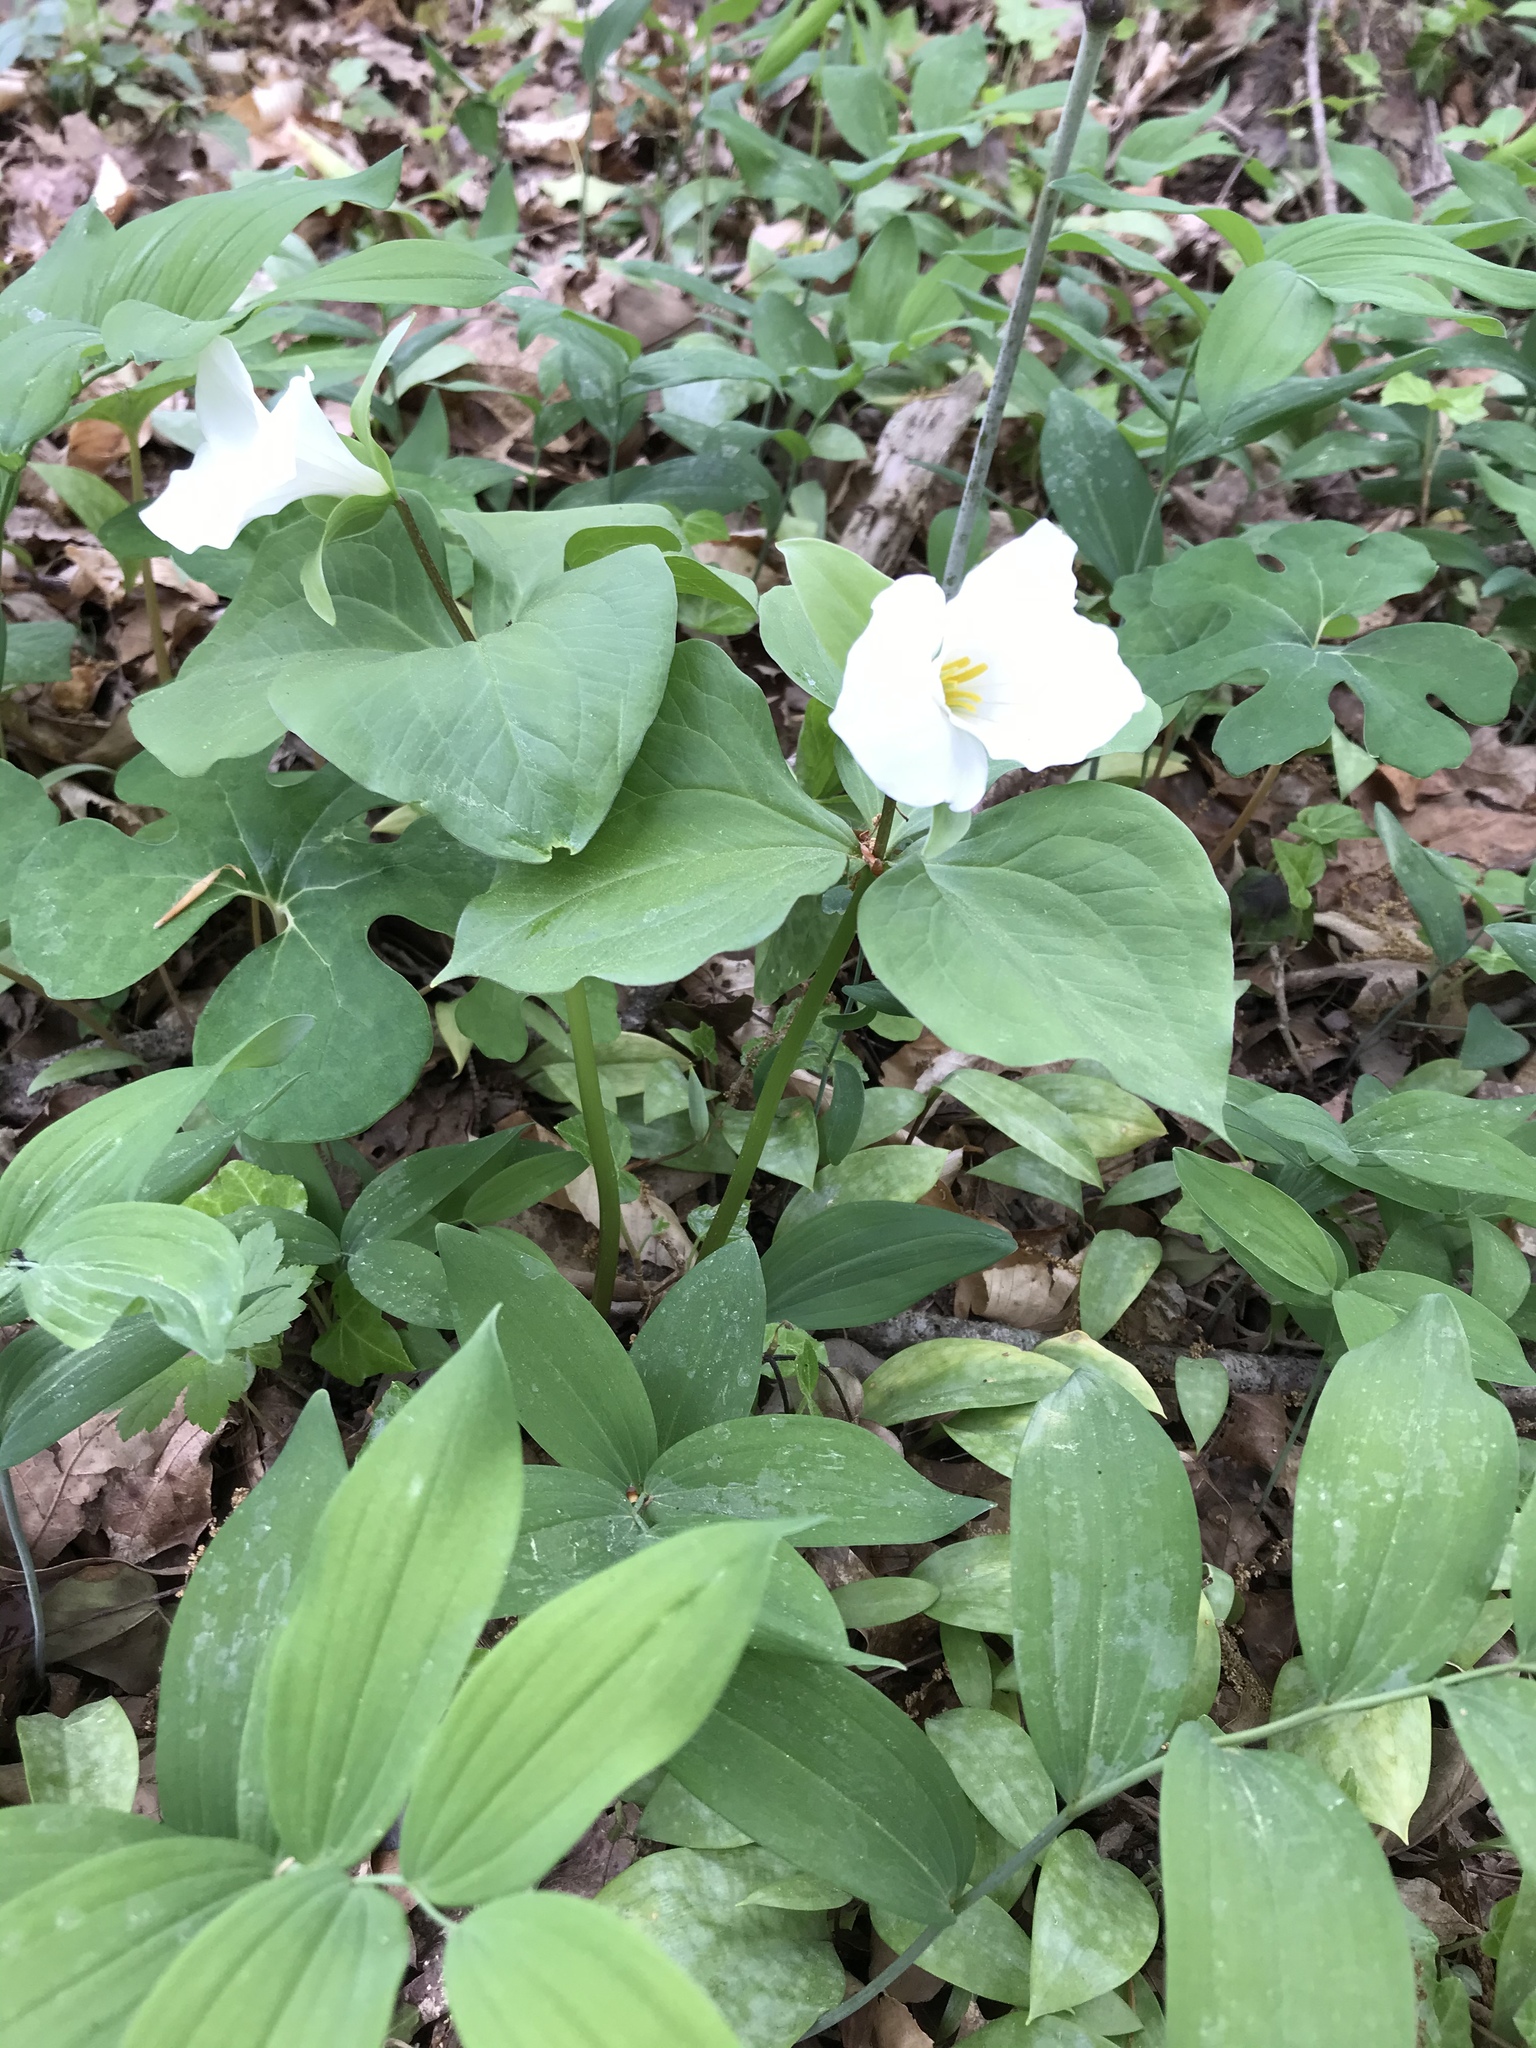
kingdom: Plantae
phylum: Tracheophyta
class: Liliopsida
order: Liliales
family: Melanthiaceae
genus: Trillium
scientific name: Trillium grandiflorum
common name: Great white trillium
